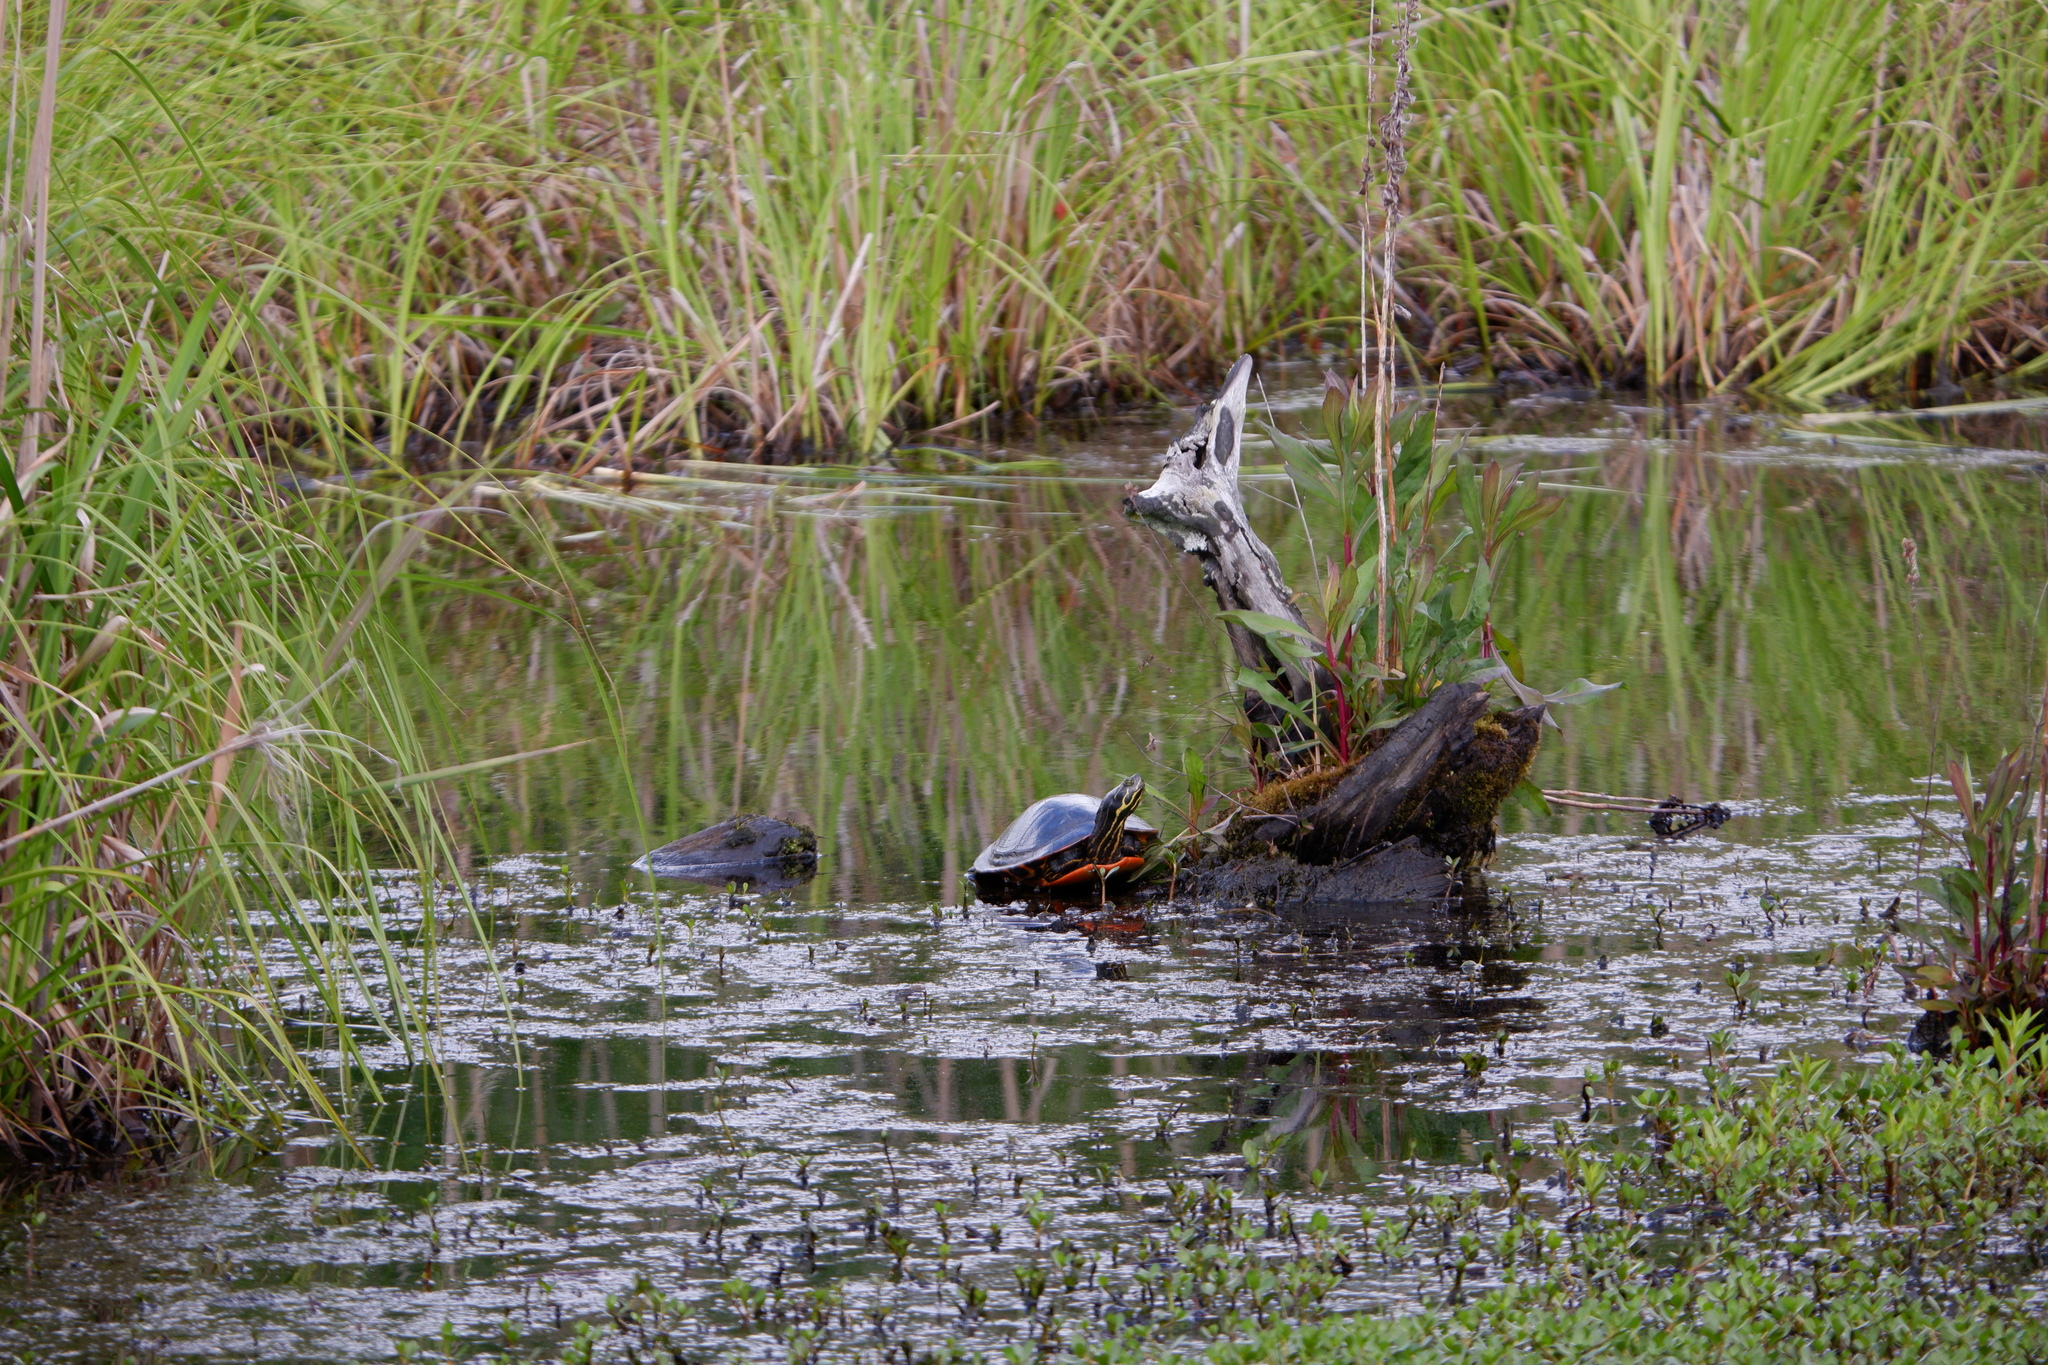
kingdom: Animalia
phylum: Chordata
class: Testudines
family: Emydidae
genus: Chrysemys
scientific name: Chrysemys picta
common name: Painted turtle
